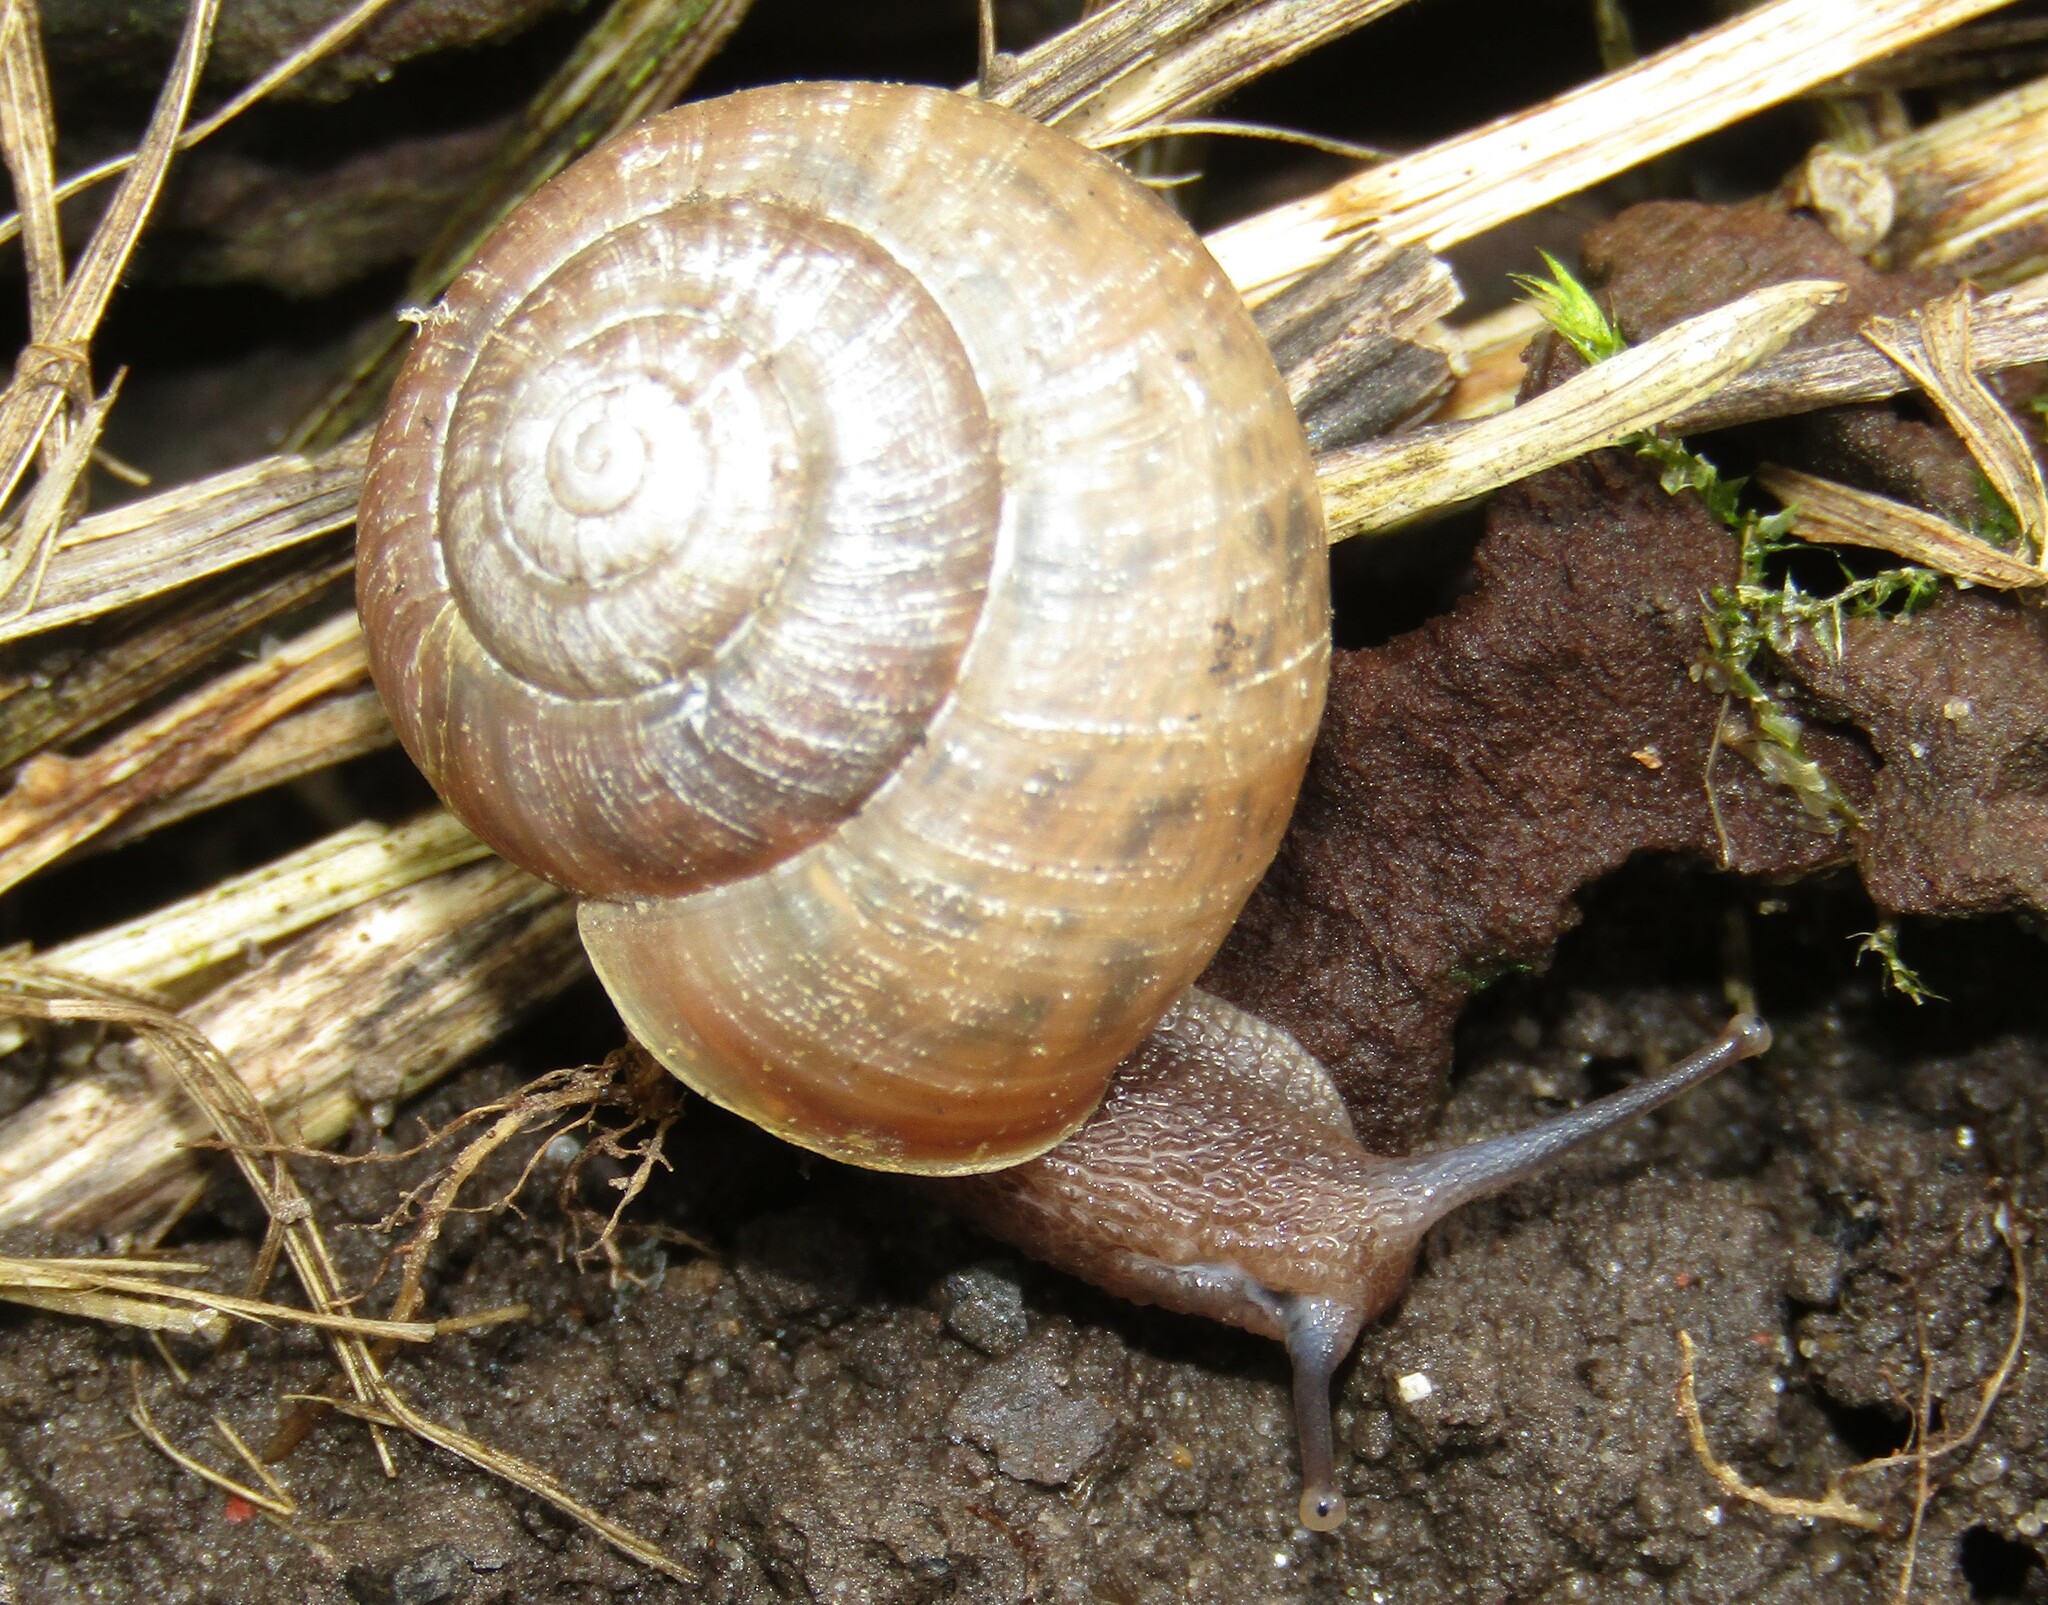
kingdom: Animalia
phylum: Mollusca
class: Gastropoda
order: Stylommatophora
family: Camaenidae
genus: Fruticicola
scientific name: Fruticicola fruticum
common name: Bush snail
